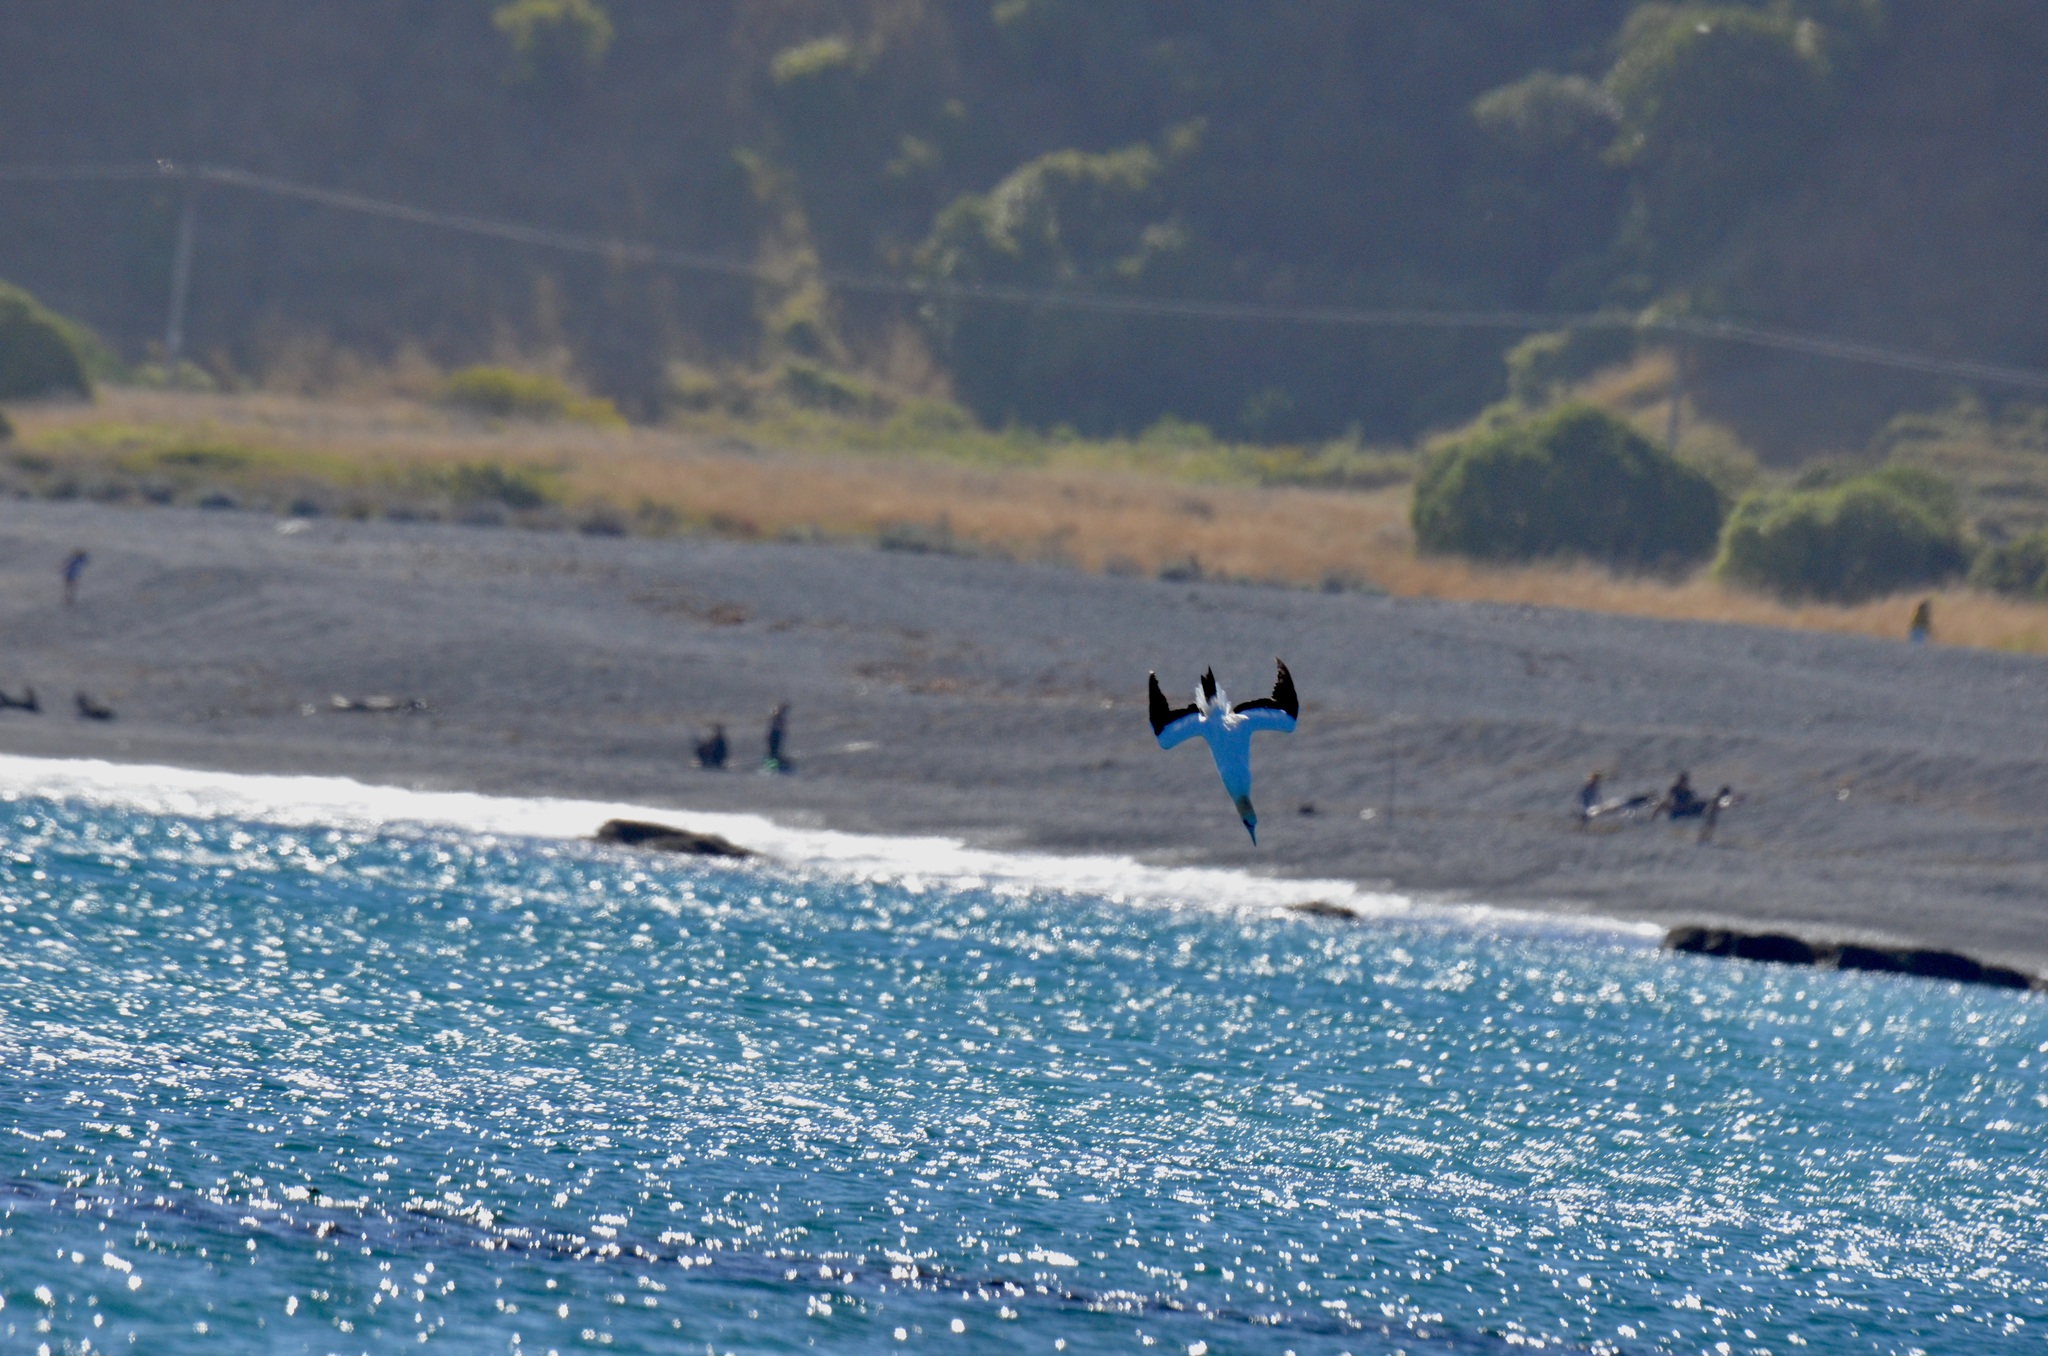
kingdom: Animalia
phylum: Chordata
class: Aves
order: Suliformes
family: Sulidae
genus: Morus
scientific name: Morus serrator
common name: Australasian gannet
